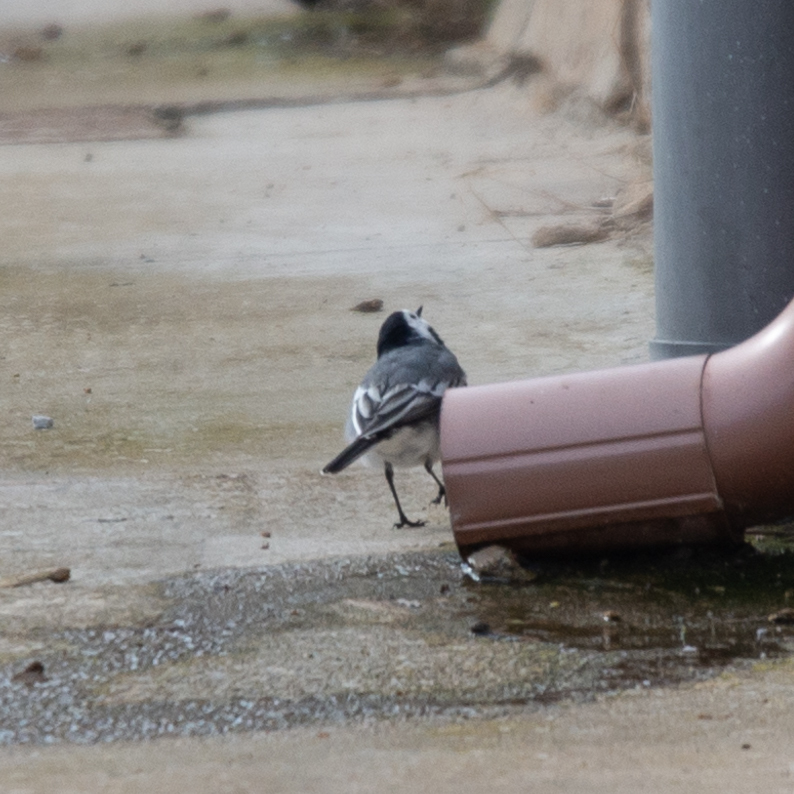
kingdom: Animalia
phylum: Chordata
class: Aves
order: Passeriformes
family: Motacillidae
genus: Motacilla
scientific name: Motacilla alba
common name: White wagtail
